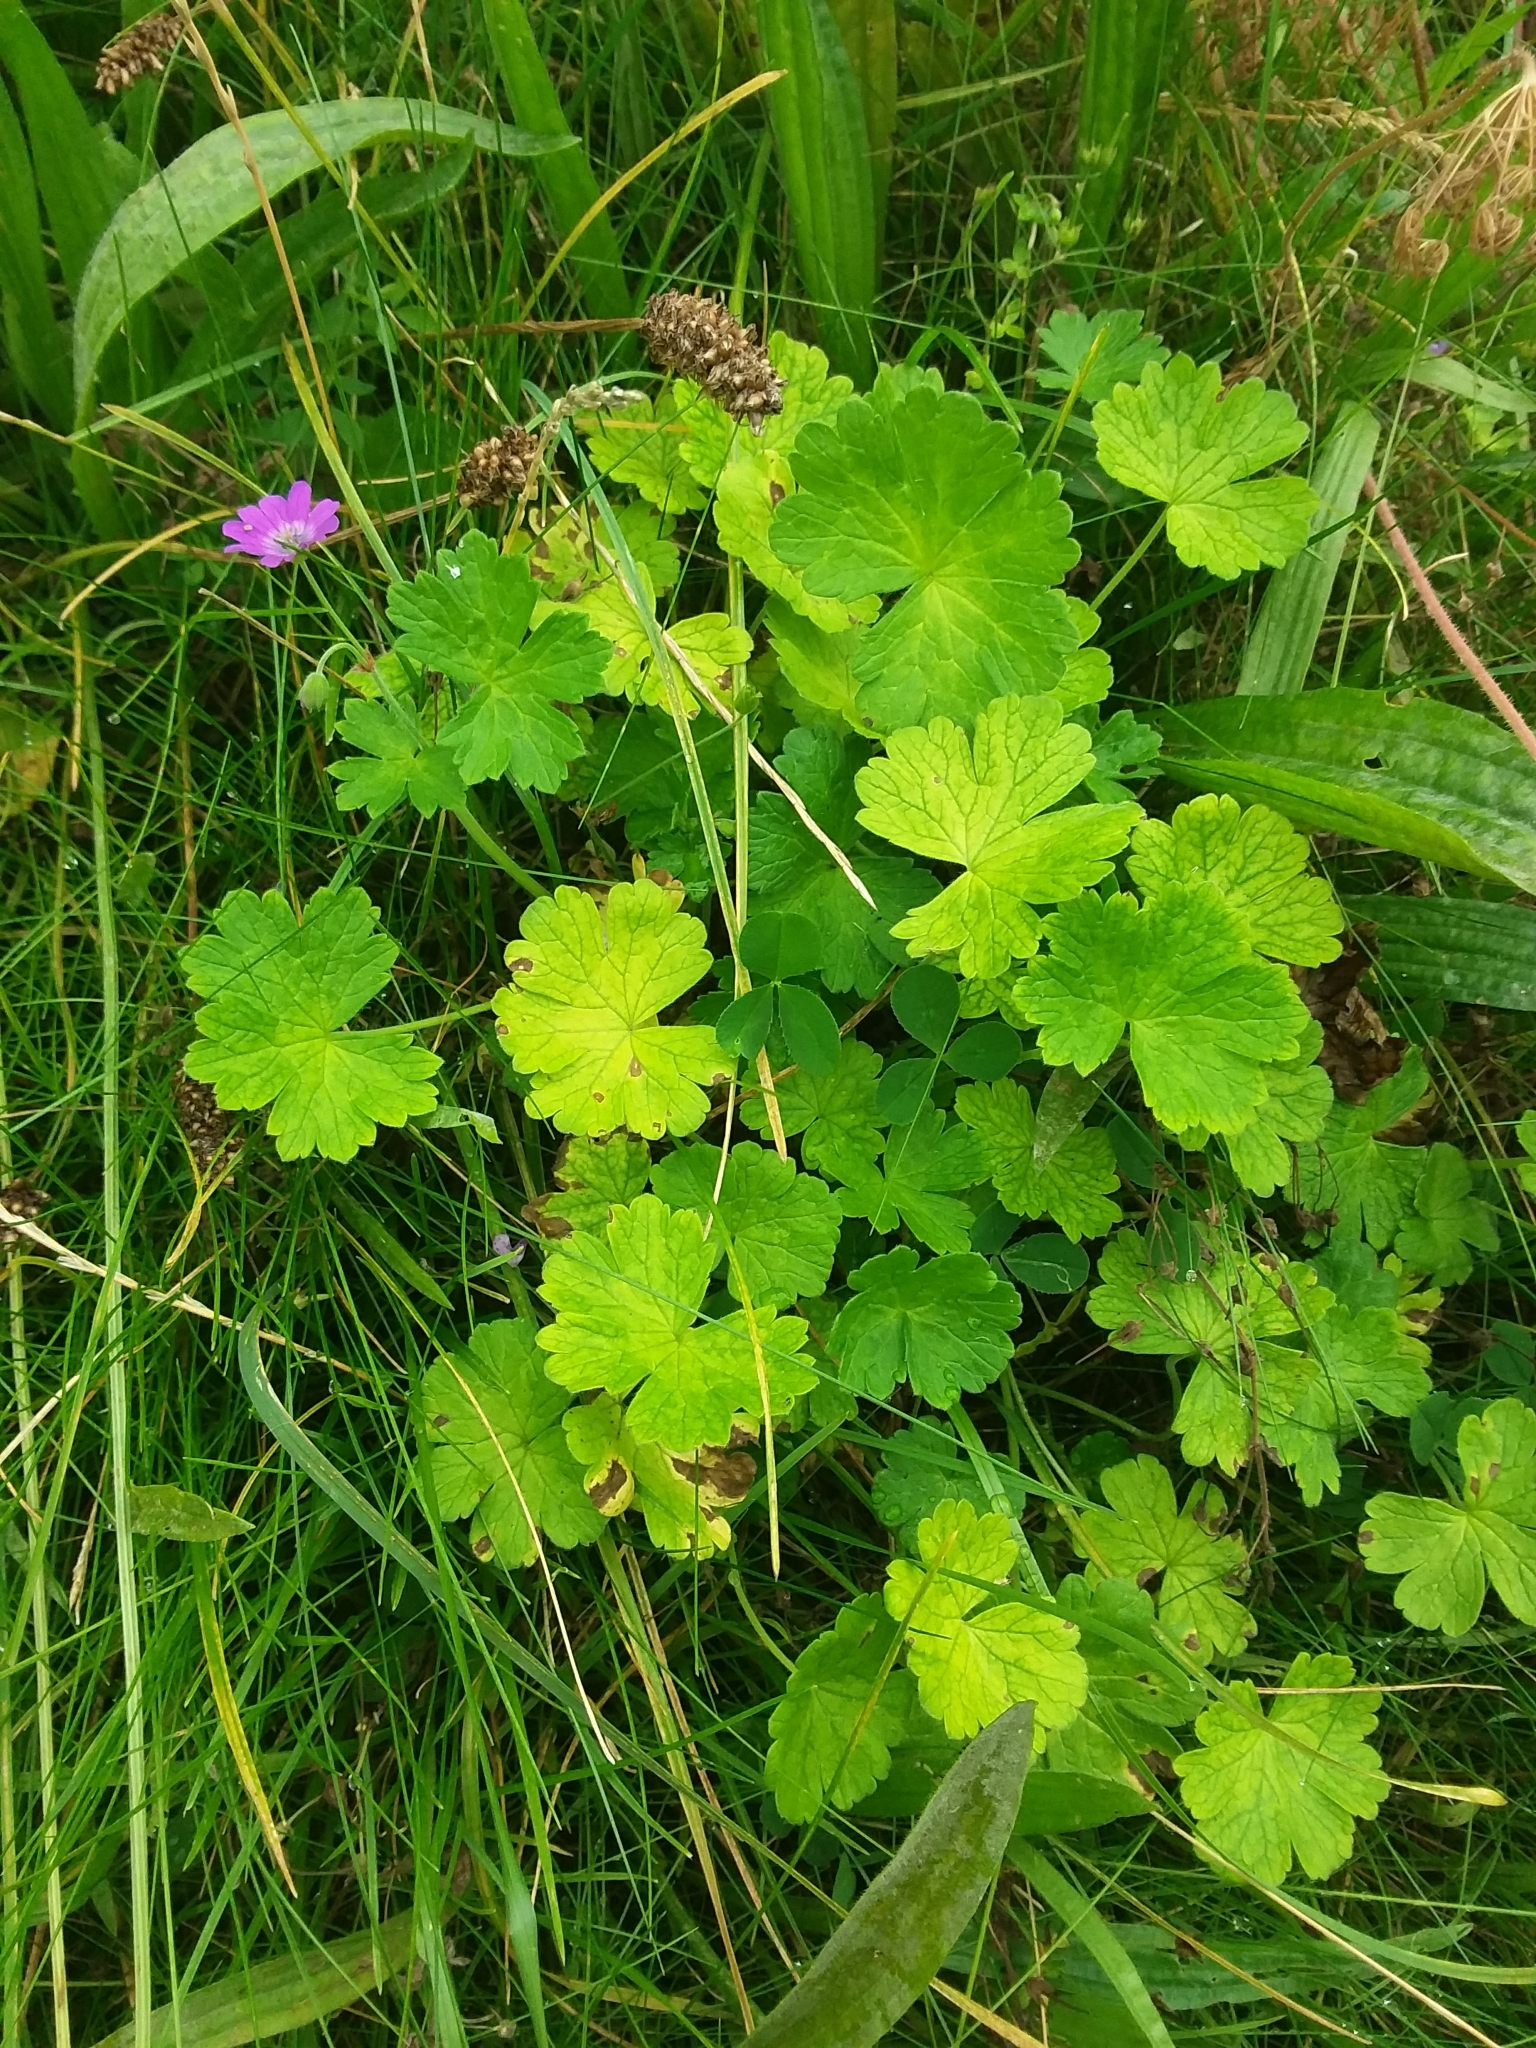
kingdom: Plantae
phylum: Tracheophyta
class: Magnoliopsida
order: Geraniales
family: Geraniaceae
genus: Geranium
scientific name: Geranium pyrenaicum
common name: Hedgerow crane's-bill
